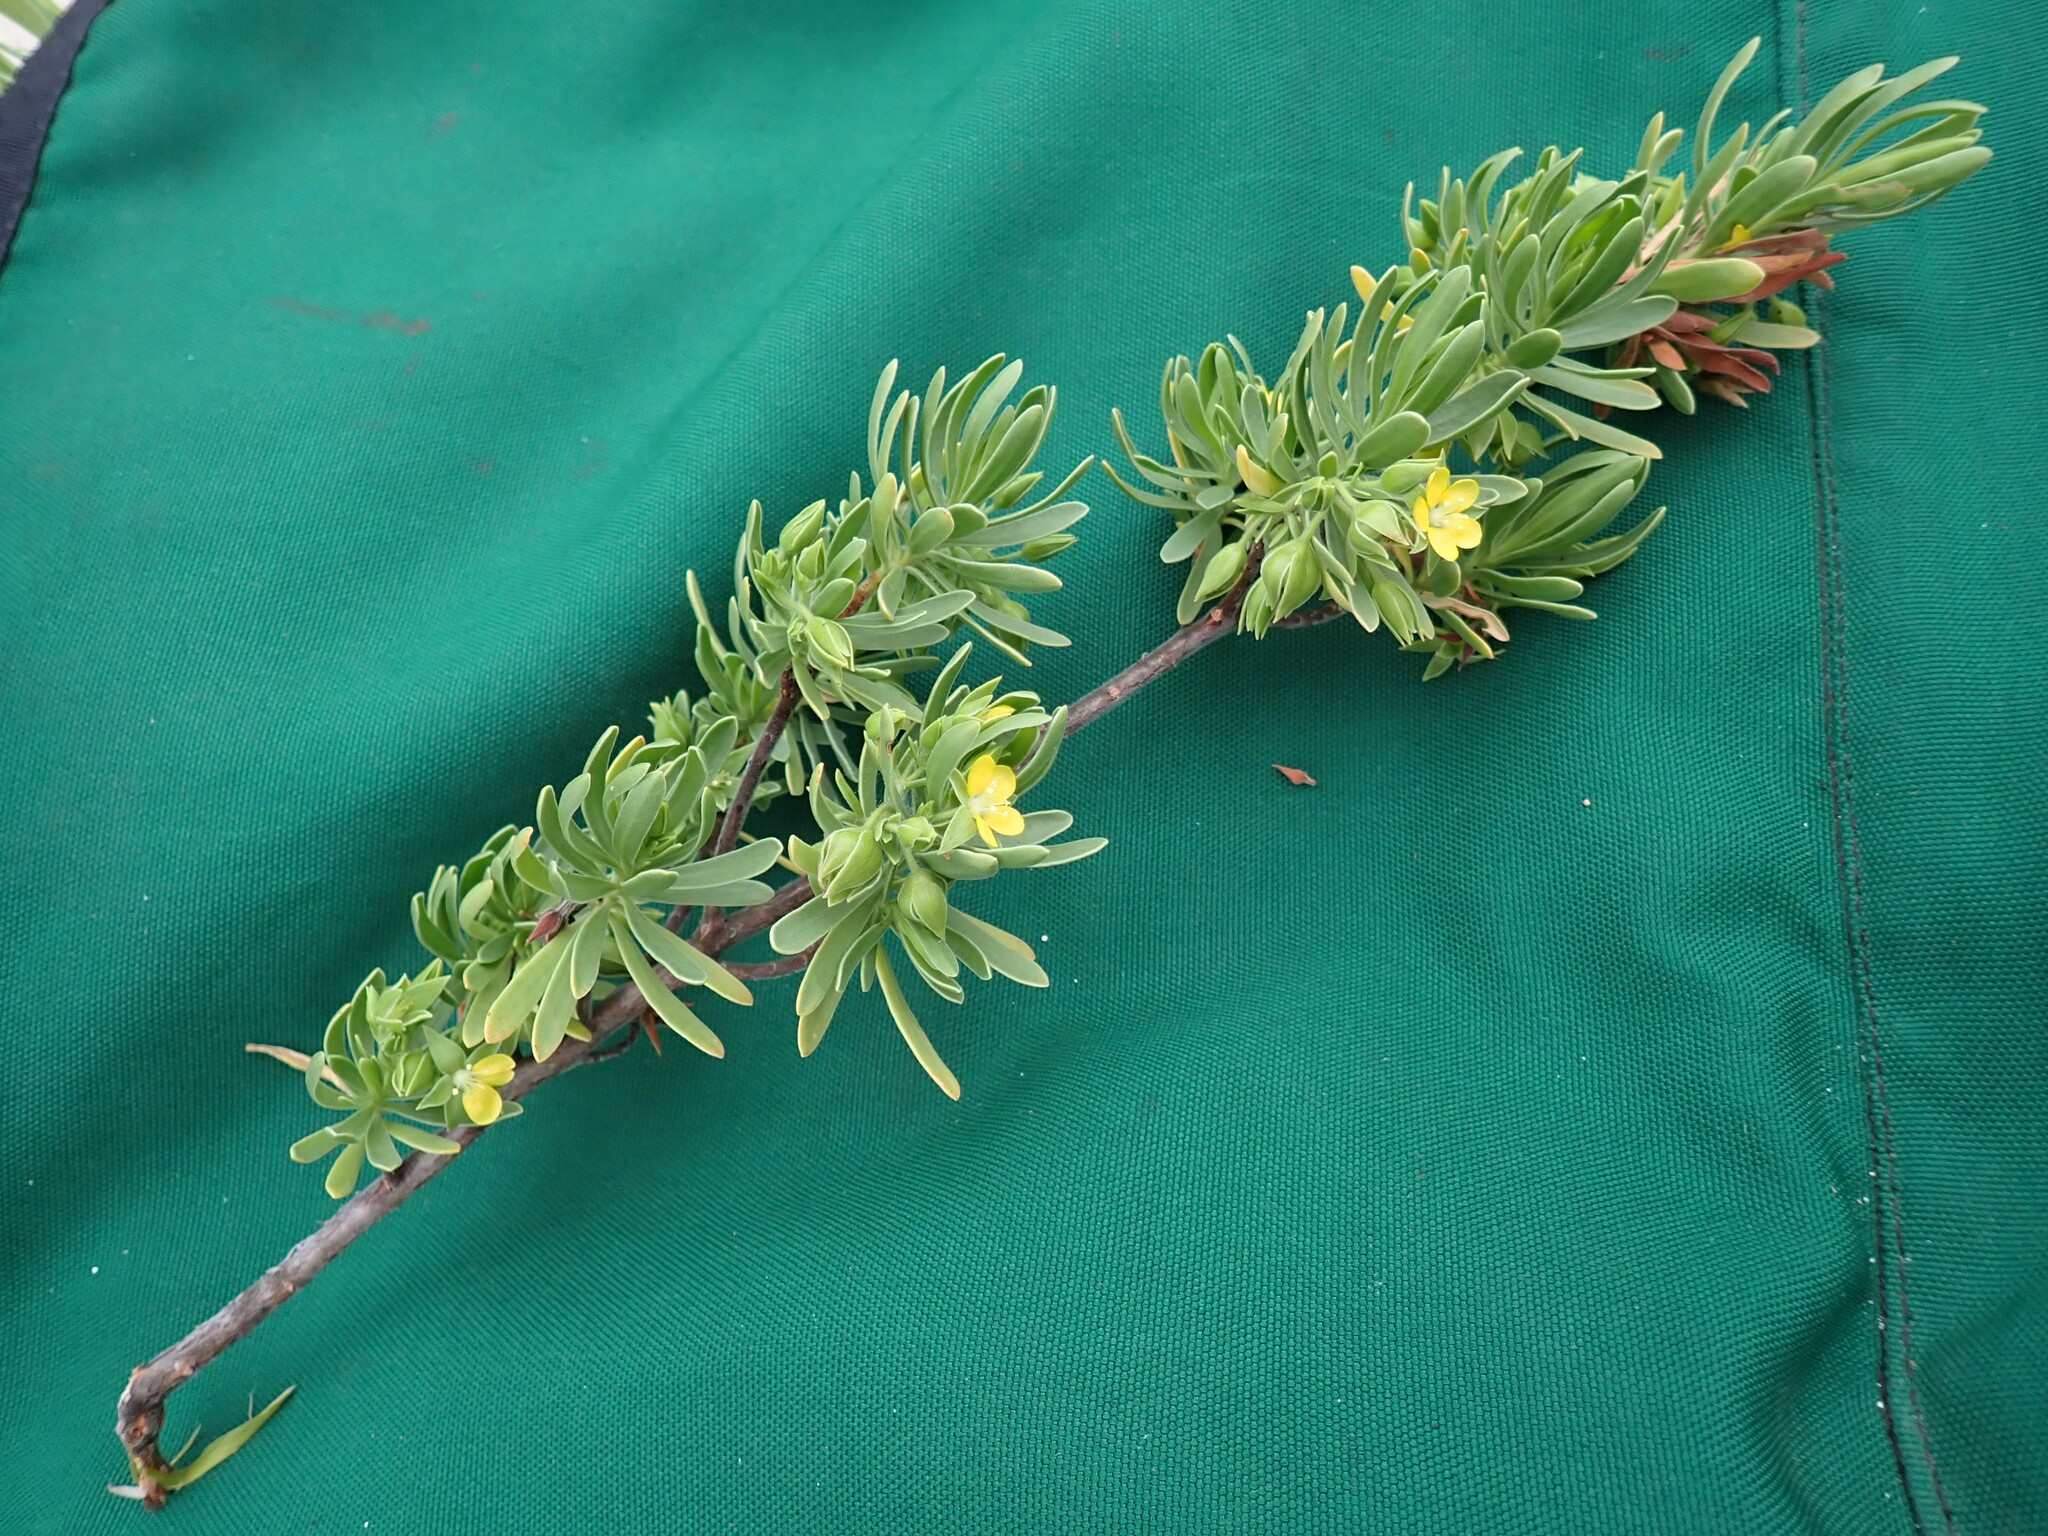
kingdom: Plantae
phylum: Tracheophyta
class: Magnoliopsida
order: Fabales
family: Surianaceae
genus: Suriana
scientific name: Suriana maritima
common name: Bay-cedar
